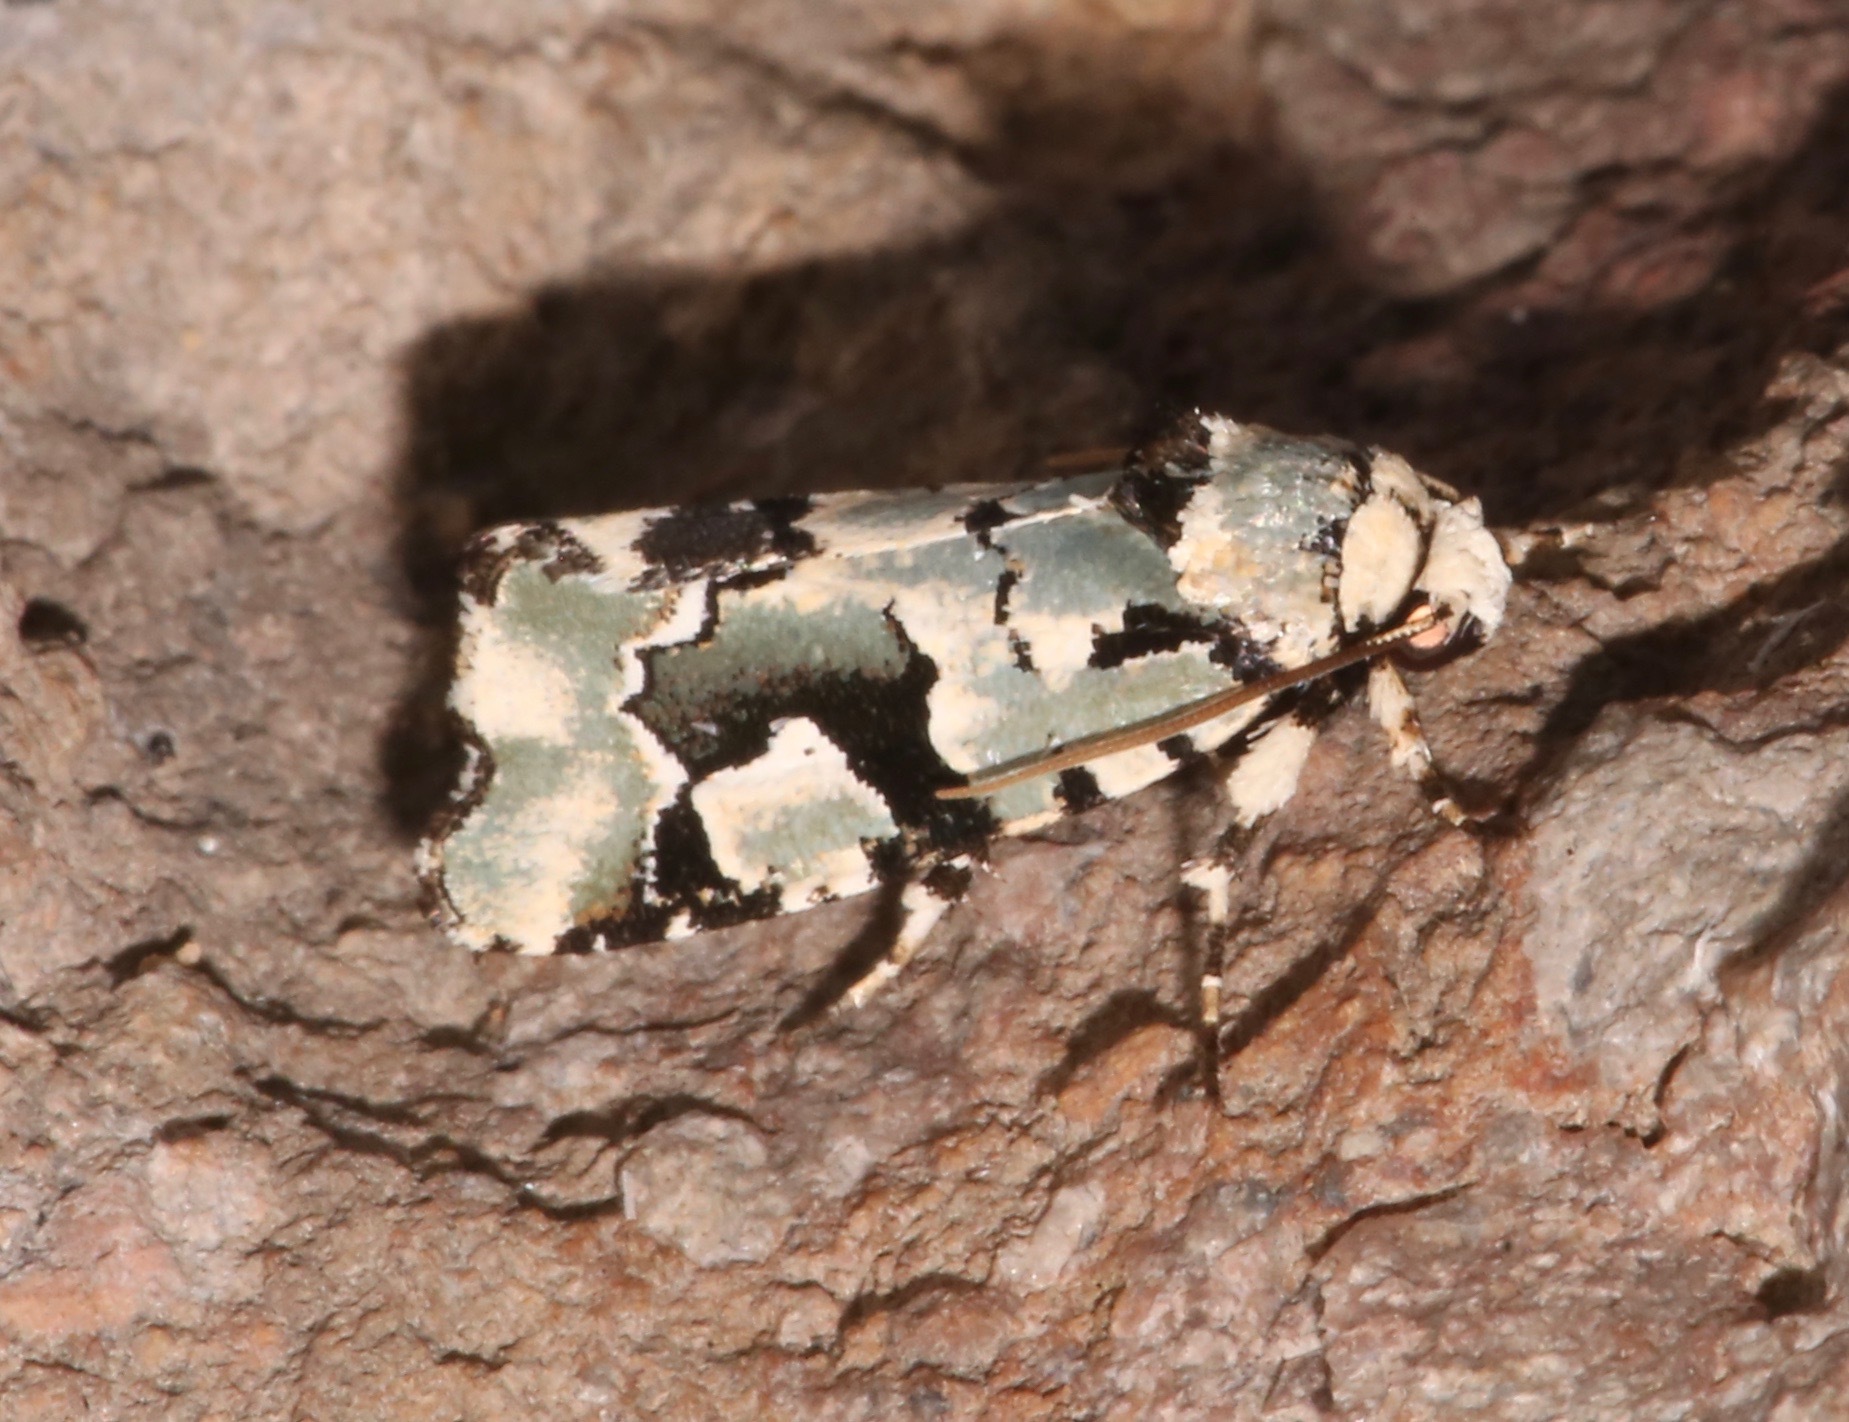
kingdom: Animalia
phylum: Arthropoda
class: Insecta
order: Lepidoptera
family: Noctuidae
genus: Emarginea
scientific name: Emarginea percara
